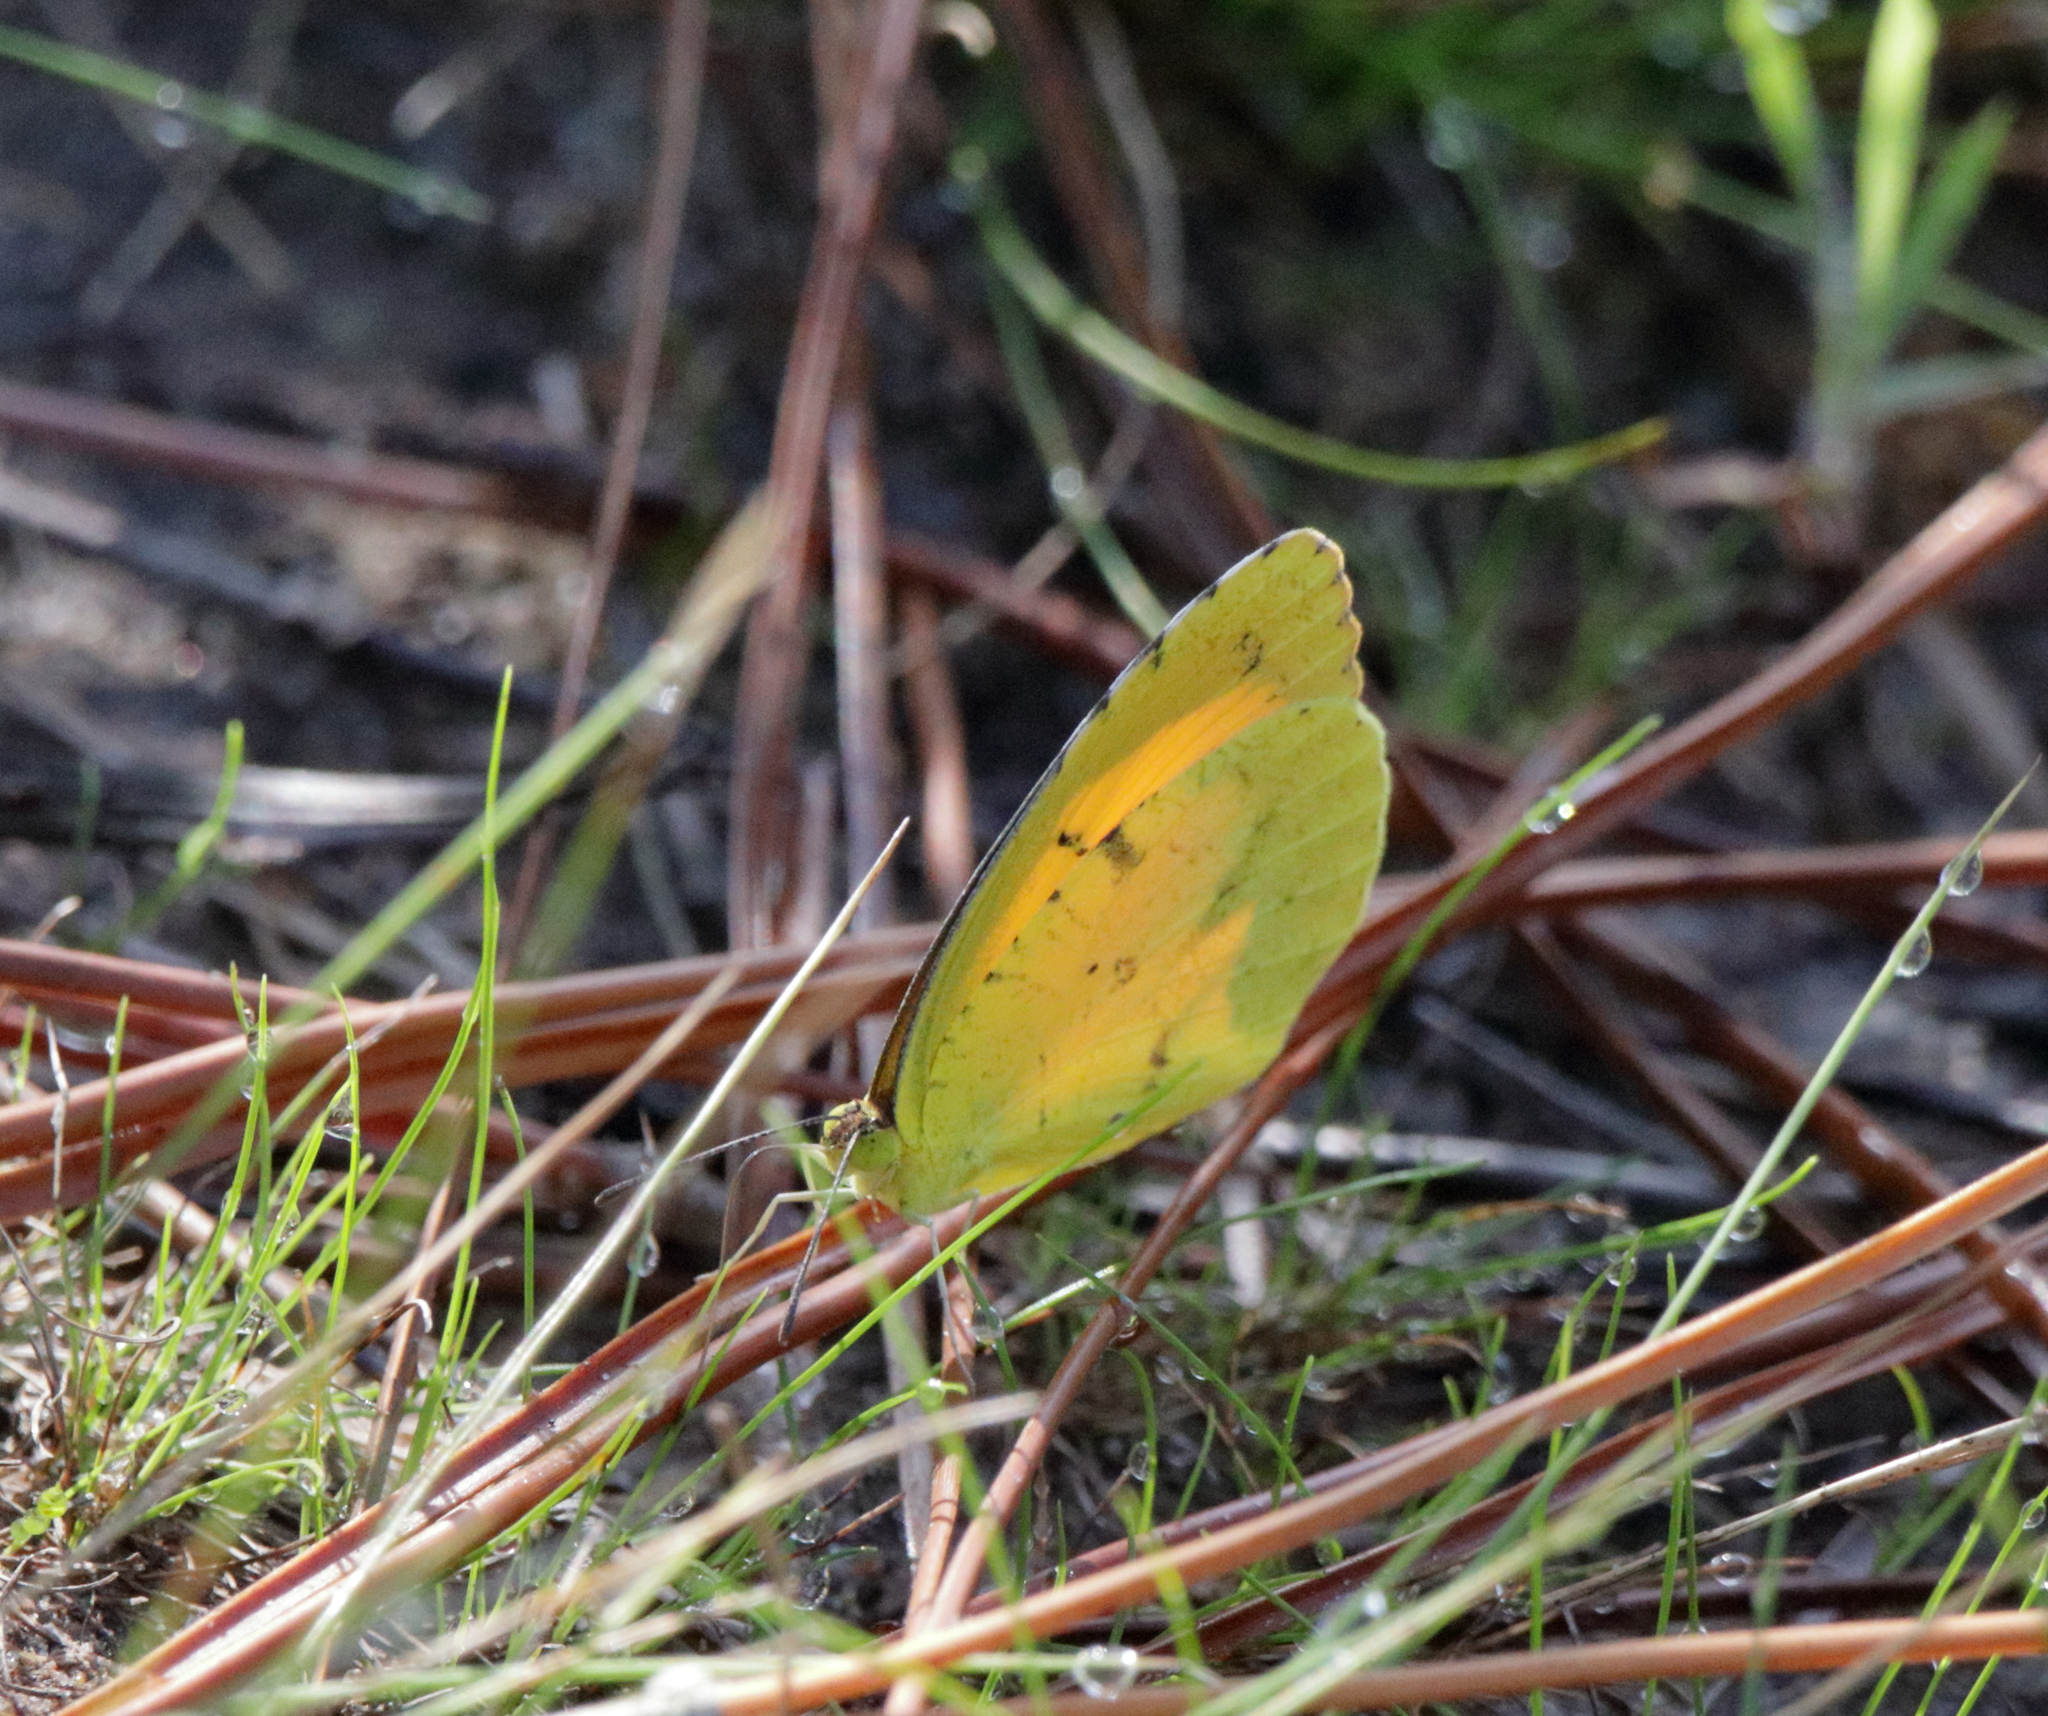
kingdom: Animalia
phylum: Arthropoda
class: Insecta
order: Lepidoptera
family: Pieridae
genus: Abaeis
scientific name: Abaeis nicippe
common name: Sleepy orange
